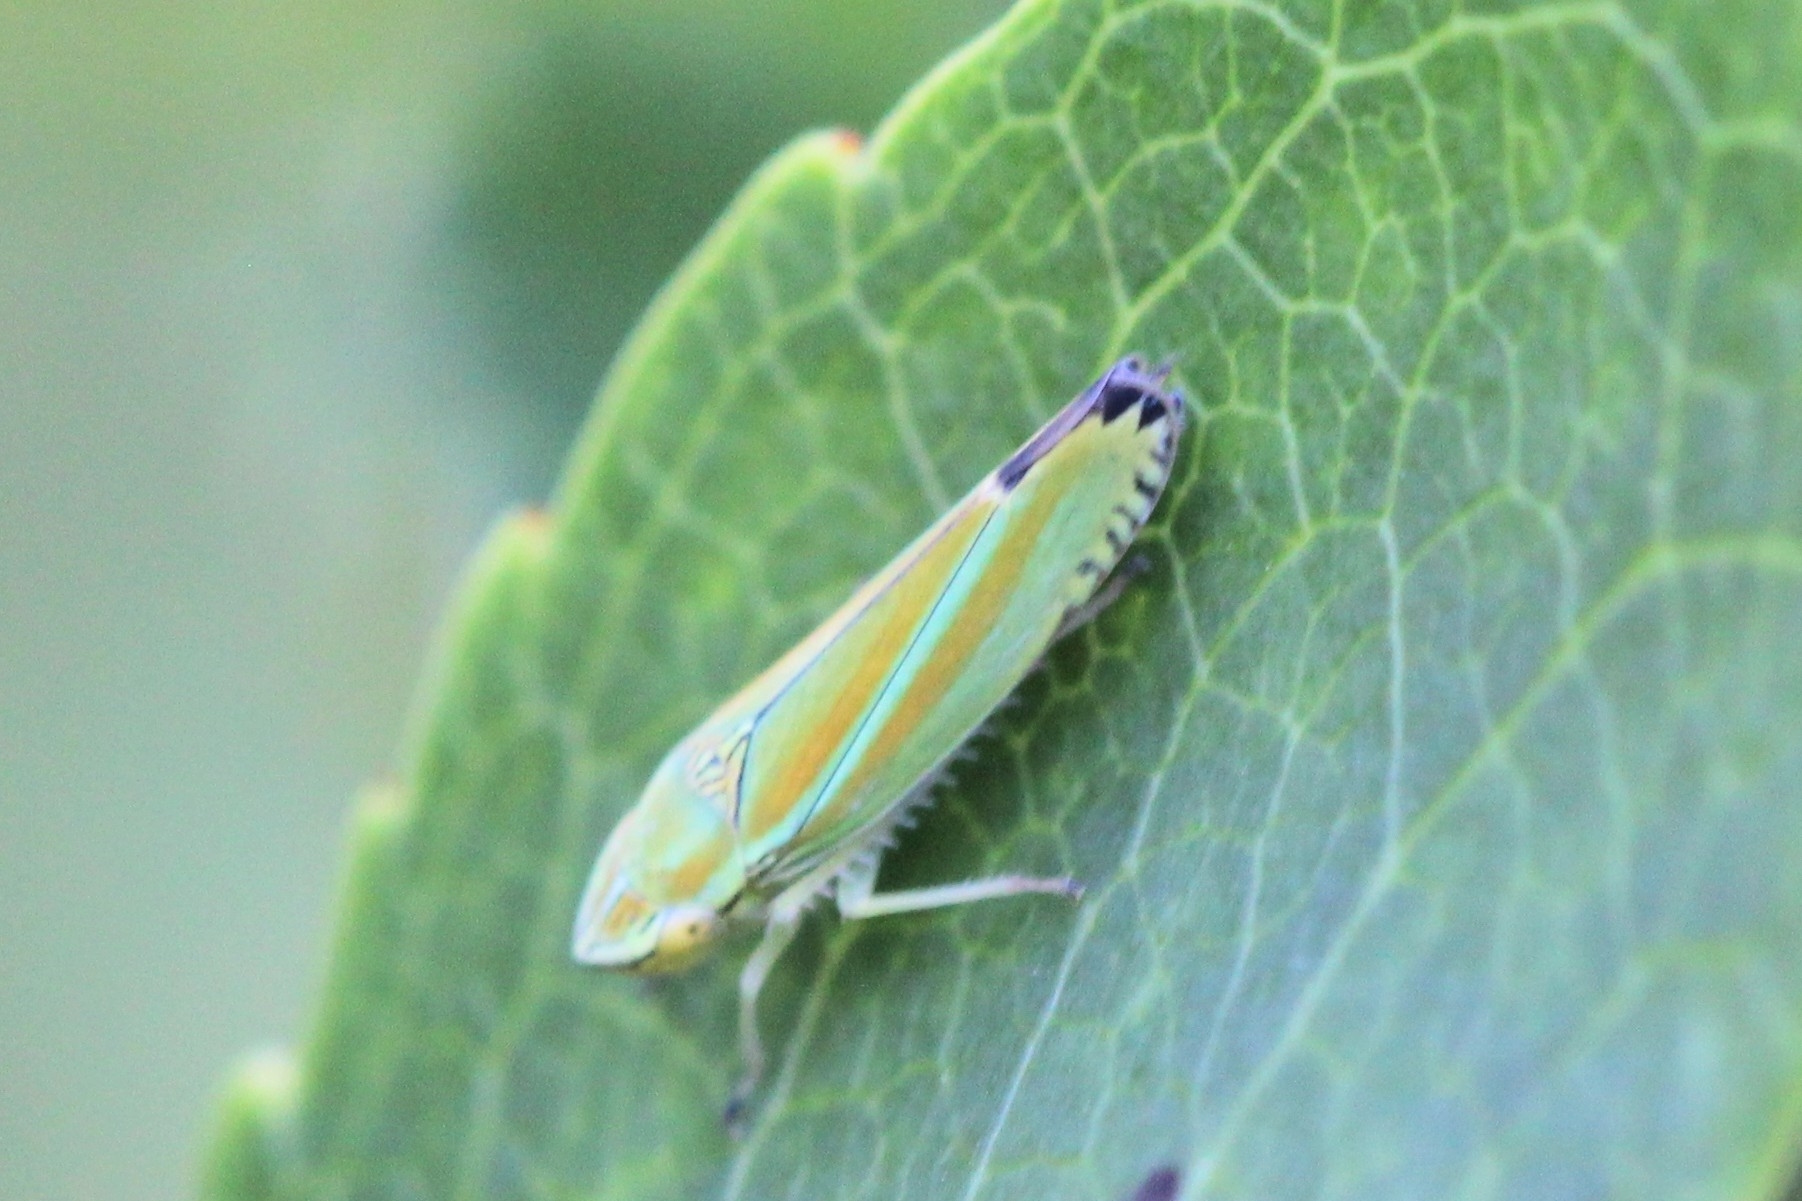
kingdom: Animalia
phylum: Arthropoda
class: Insecta
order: Hemiptera
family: Cicadellidae
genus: Graphocephala
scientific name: Graphocephala versuta
